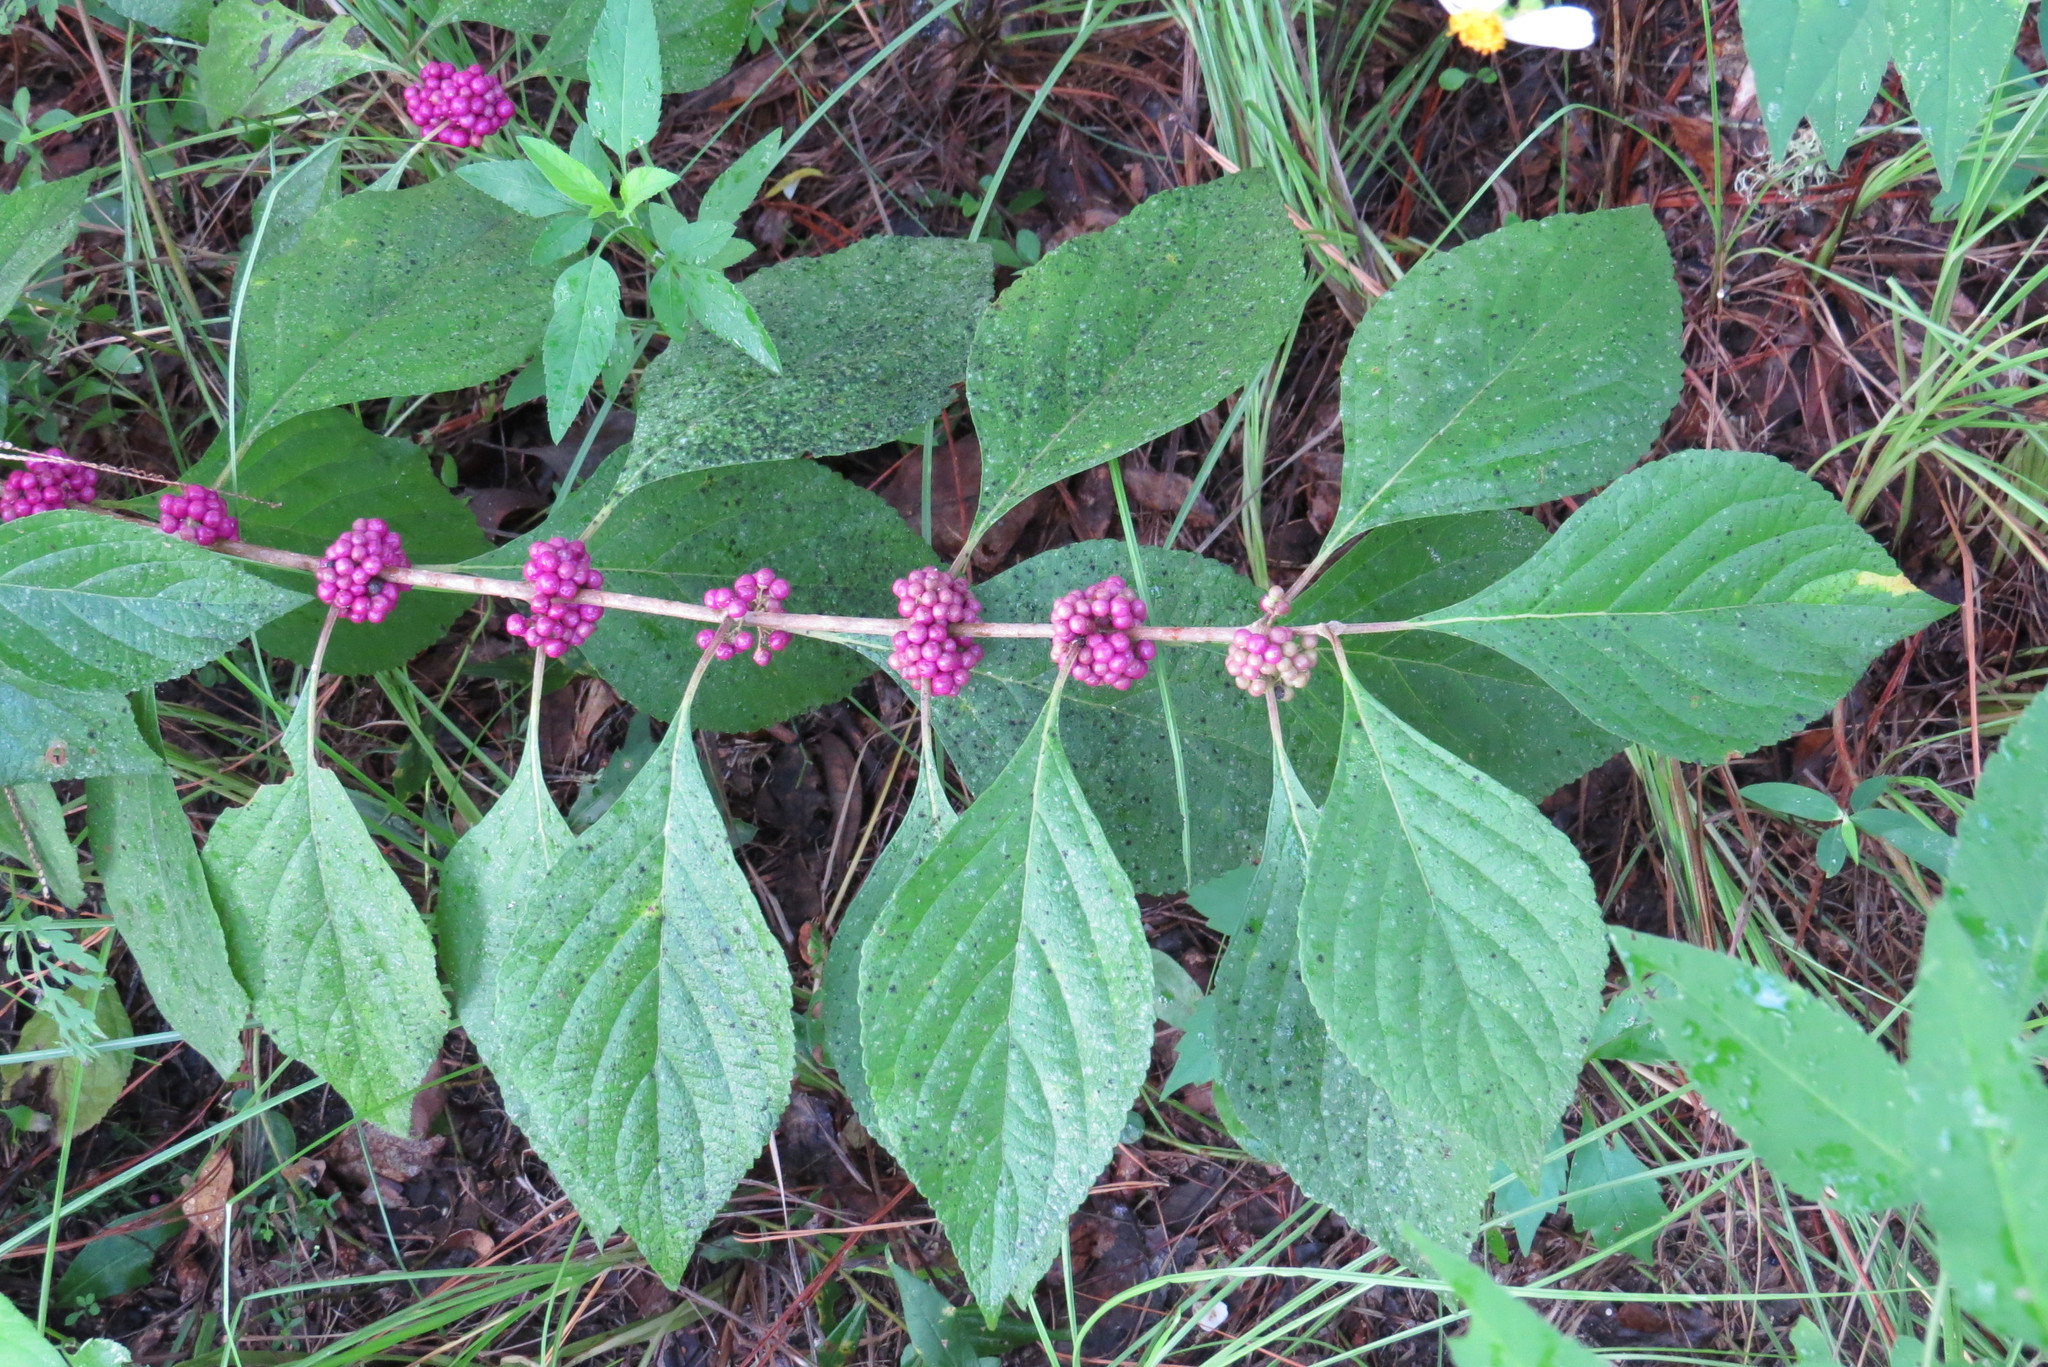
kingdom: Plantae
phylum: Tracheophyta
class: Magnoliopsida
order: Lamiales
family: Lamiaceae
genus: Callicarpa
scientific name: Callicarpa americana
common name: American beautyberry
